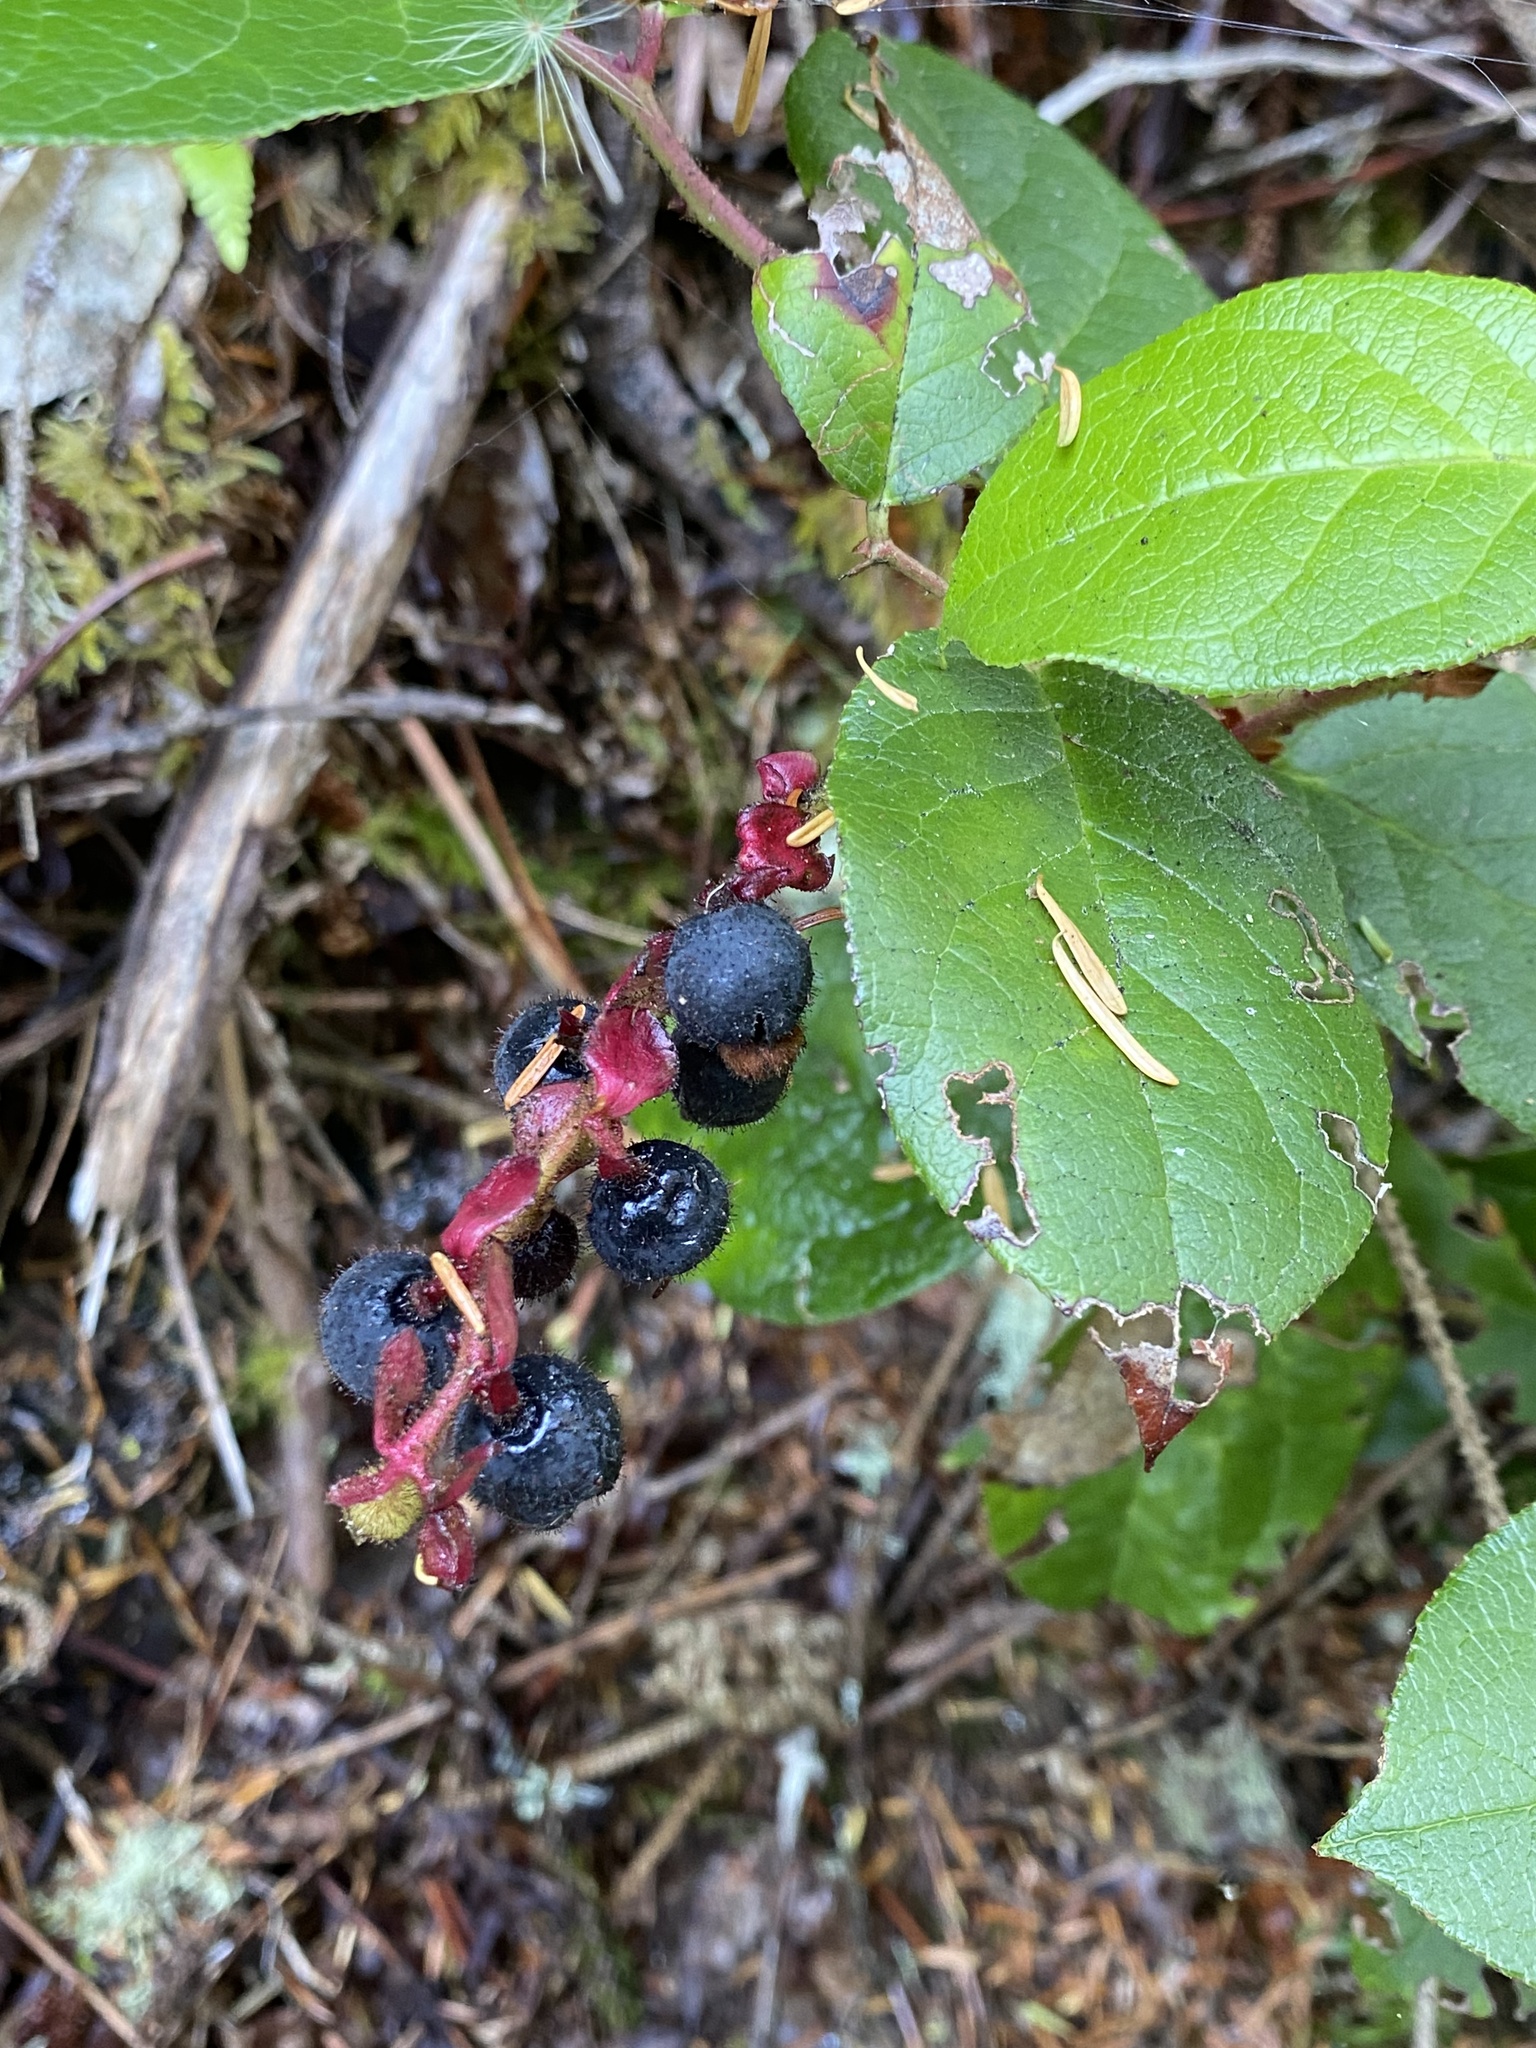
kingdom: Plantae
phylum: Tracheophyta
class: Magnoliopsida
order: Ericales
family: Ericaceae
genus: Gaultheria
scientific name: Gaultheria shallon
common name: Shallon
